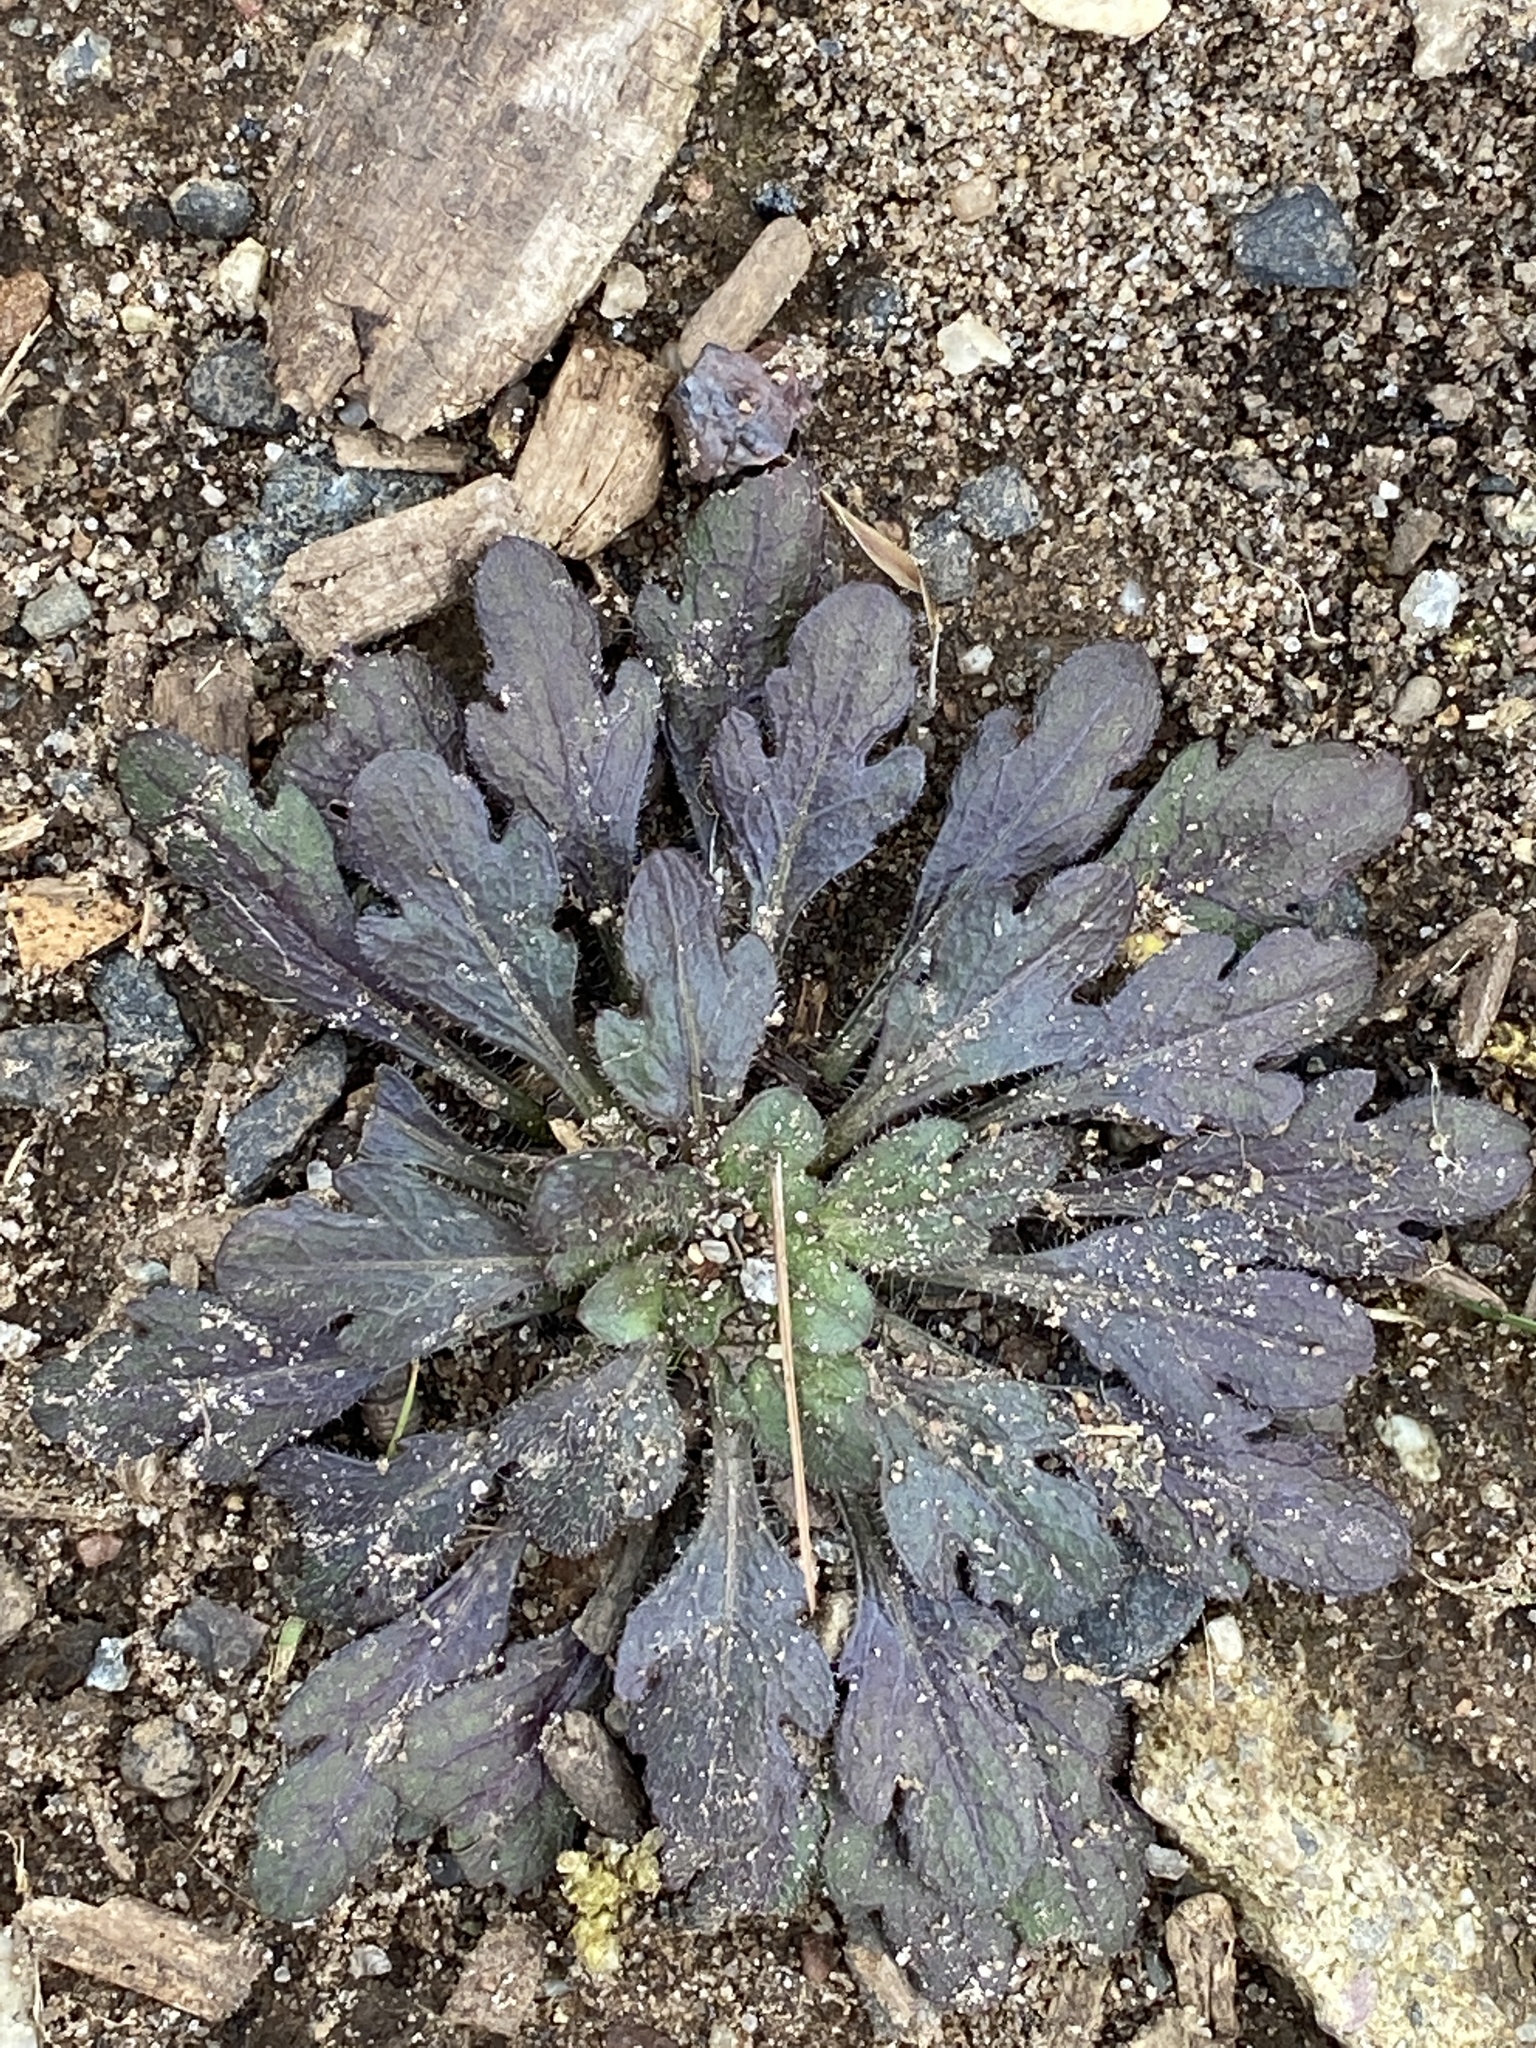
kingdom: Plantae
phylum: Tracheophyta
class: Magnoliopsida
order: Asterales
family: Asteraceae
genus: Erigeron
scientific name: Erigeron canadensis
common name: Canadian fleabane
